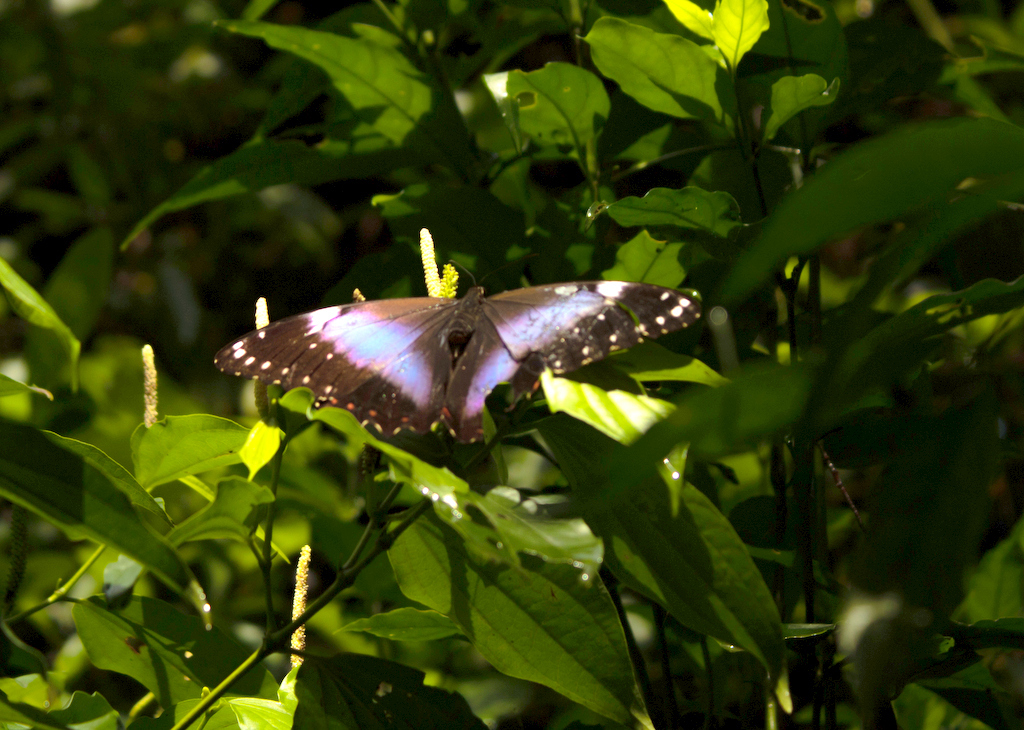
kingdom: Animalia
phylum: Arthropoda
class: Insecta
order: Lepidoptera
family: Nymphalidae
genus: Morpho
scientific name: Morpho helenor
